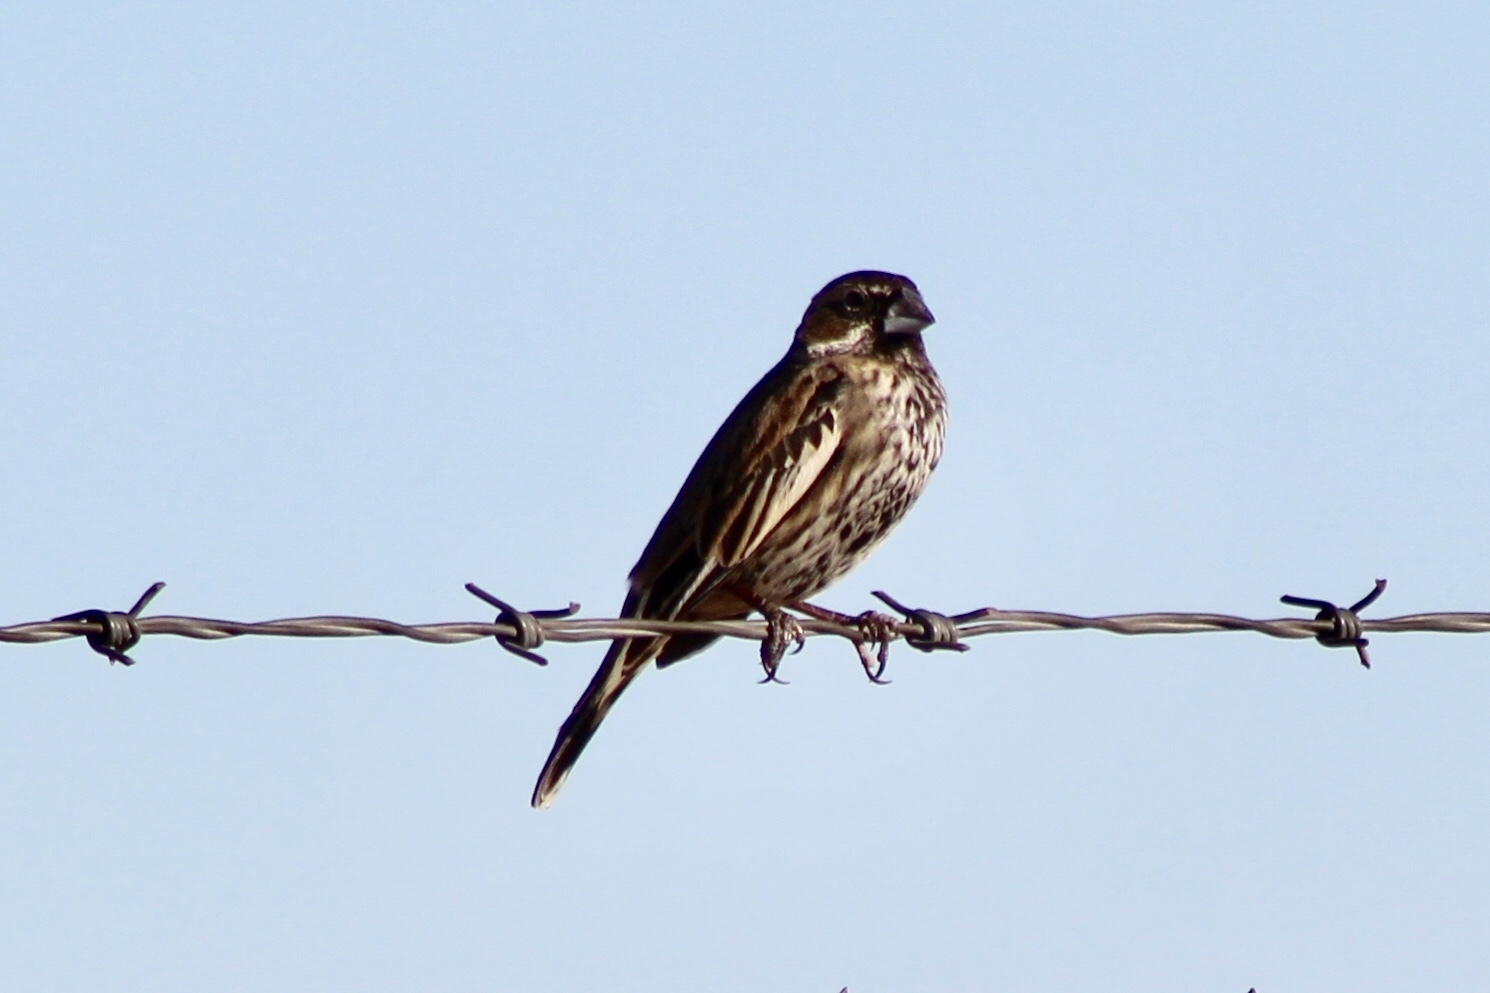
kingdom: Animalia
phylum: Chordata
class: Aves
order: Passeriformes
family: Passerellidae
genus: Calamospiza
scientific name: Calamospiza melanocorys
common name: Lark bunting
